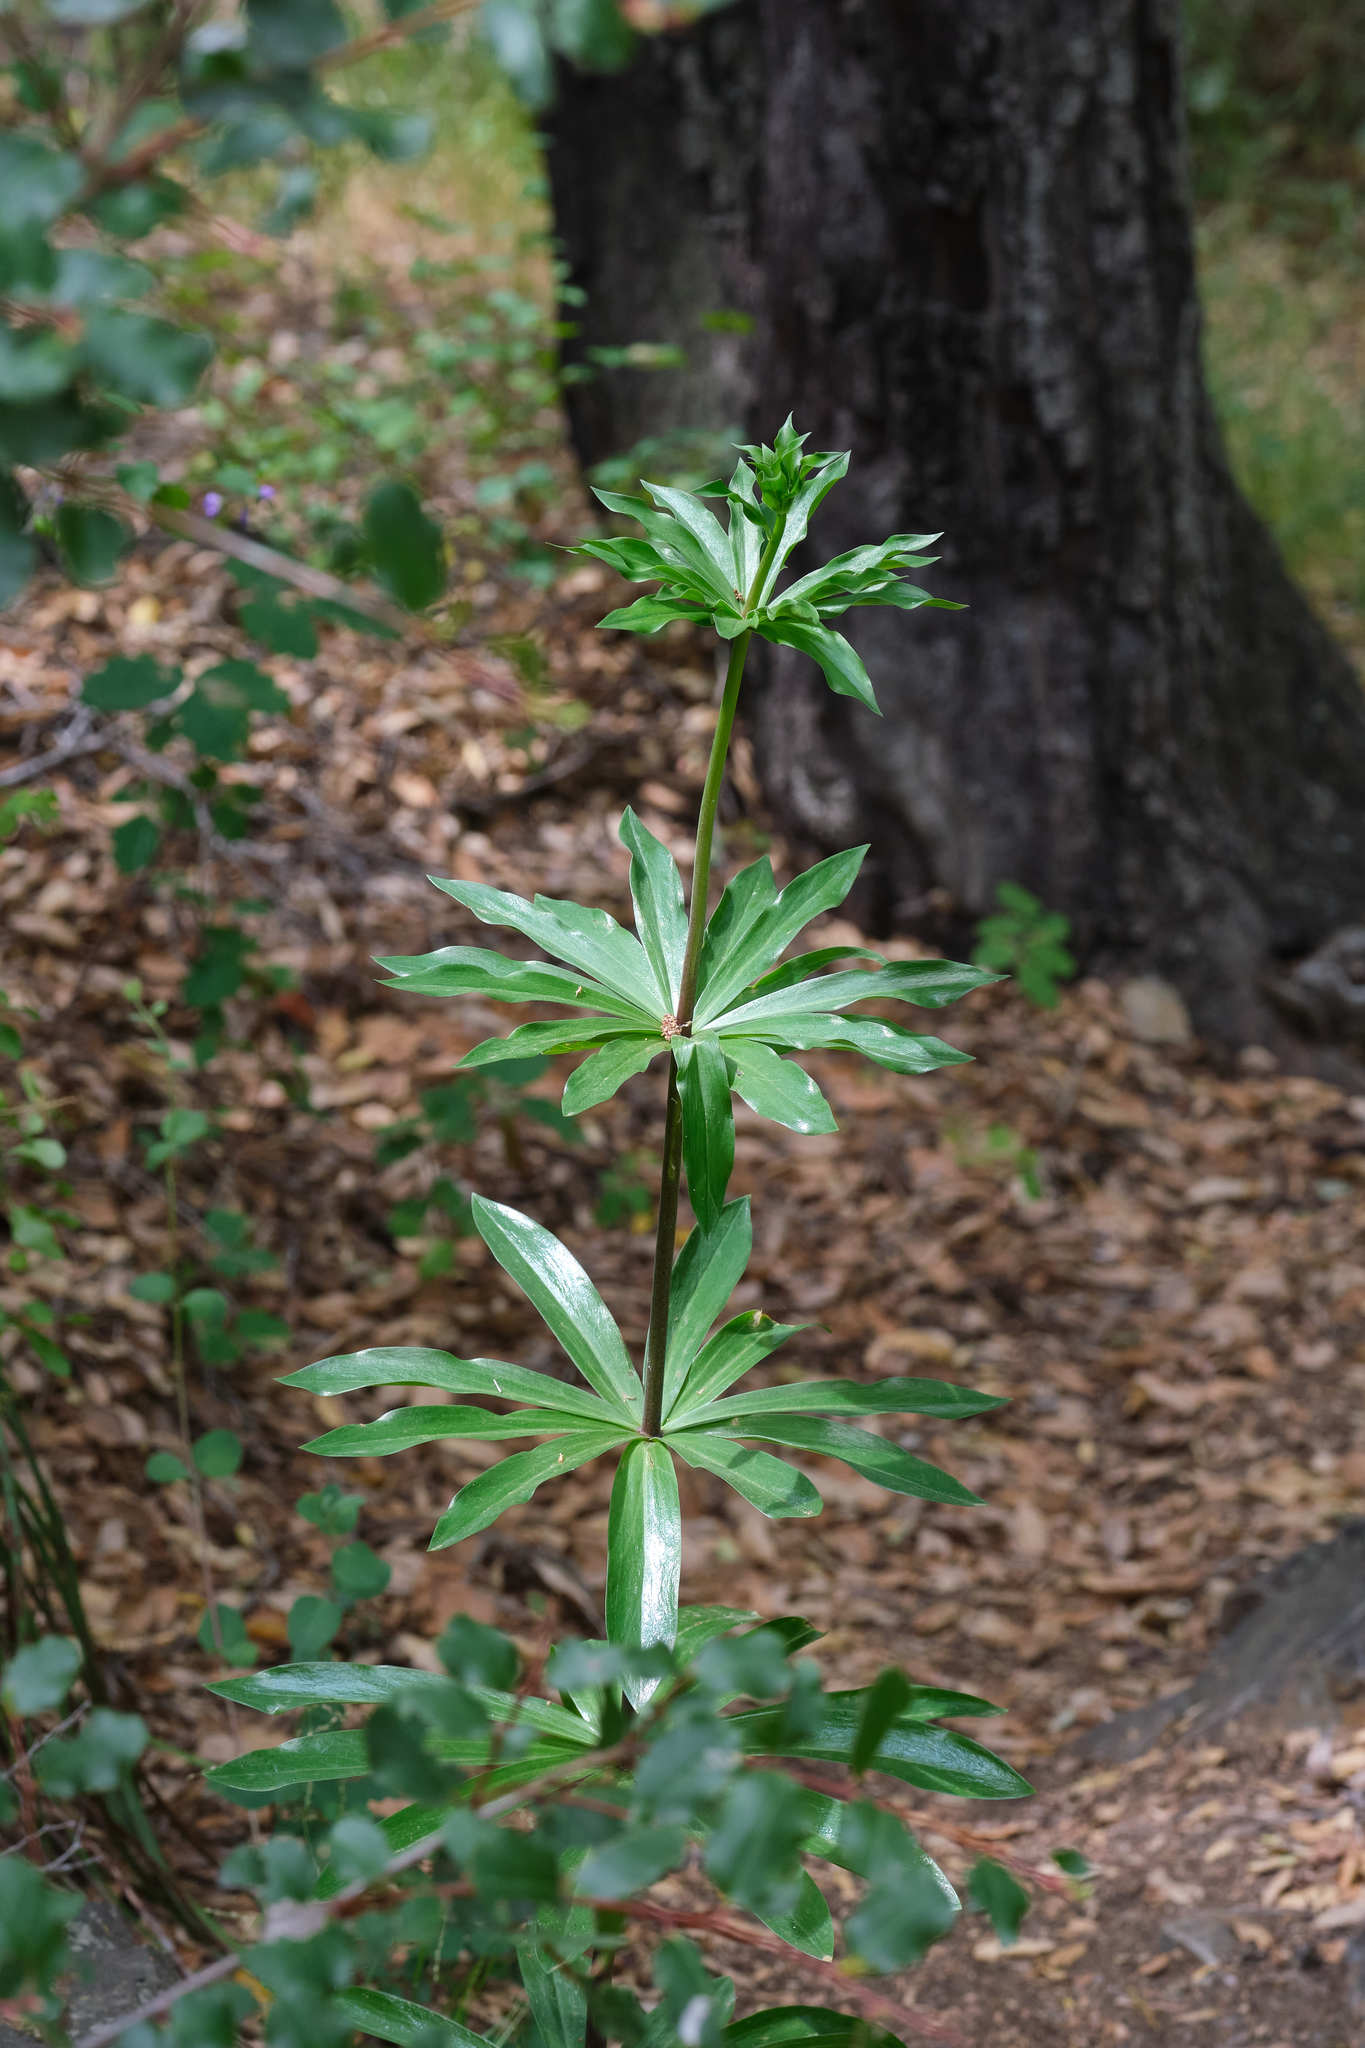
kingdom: Plantae
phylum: Tracheophyta
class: Liliopsida
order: Liliales
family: Liliaceae
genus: Lilium
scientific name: Lilium humboldtii
